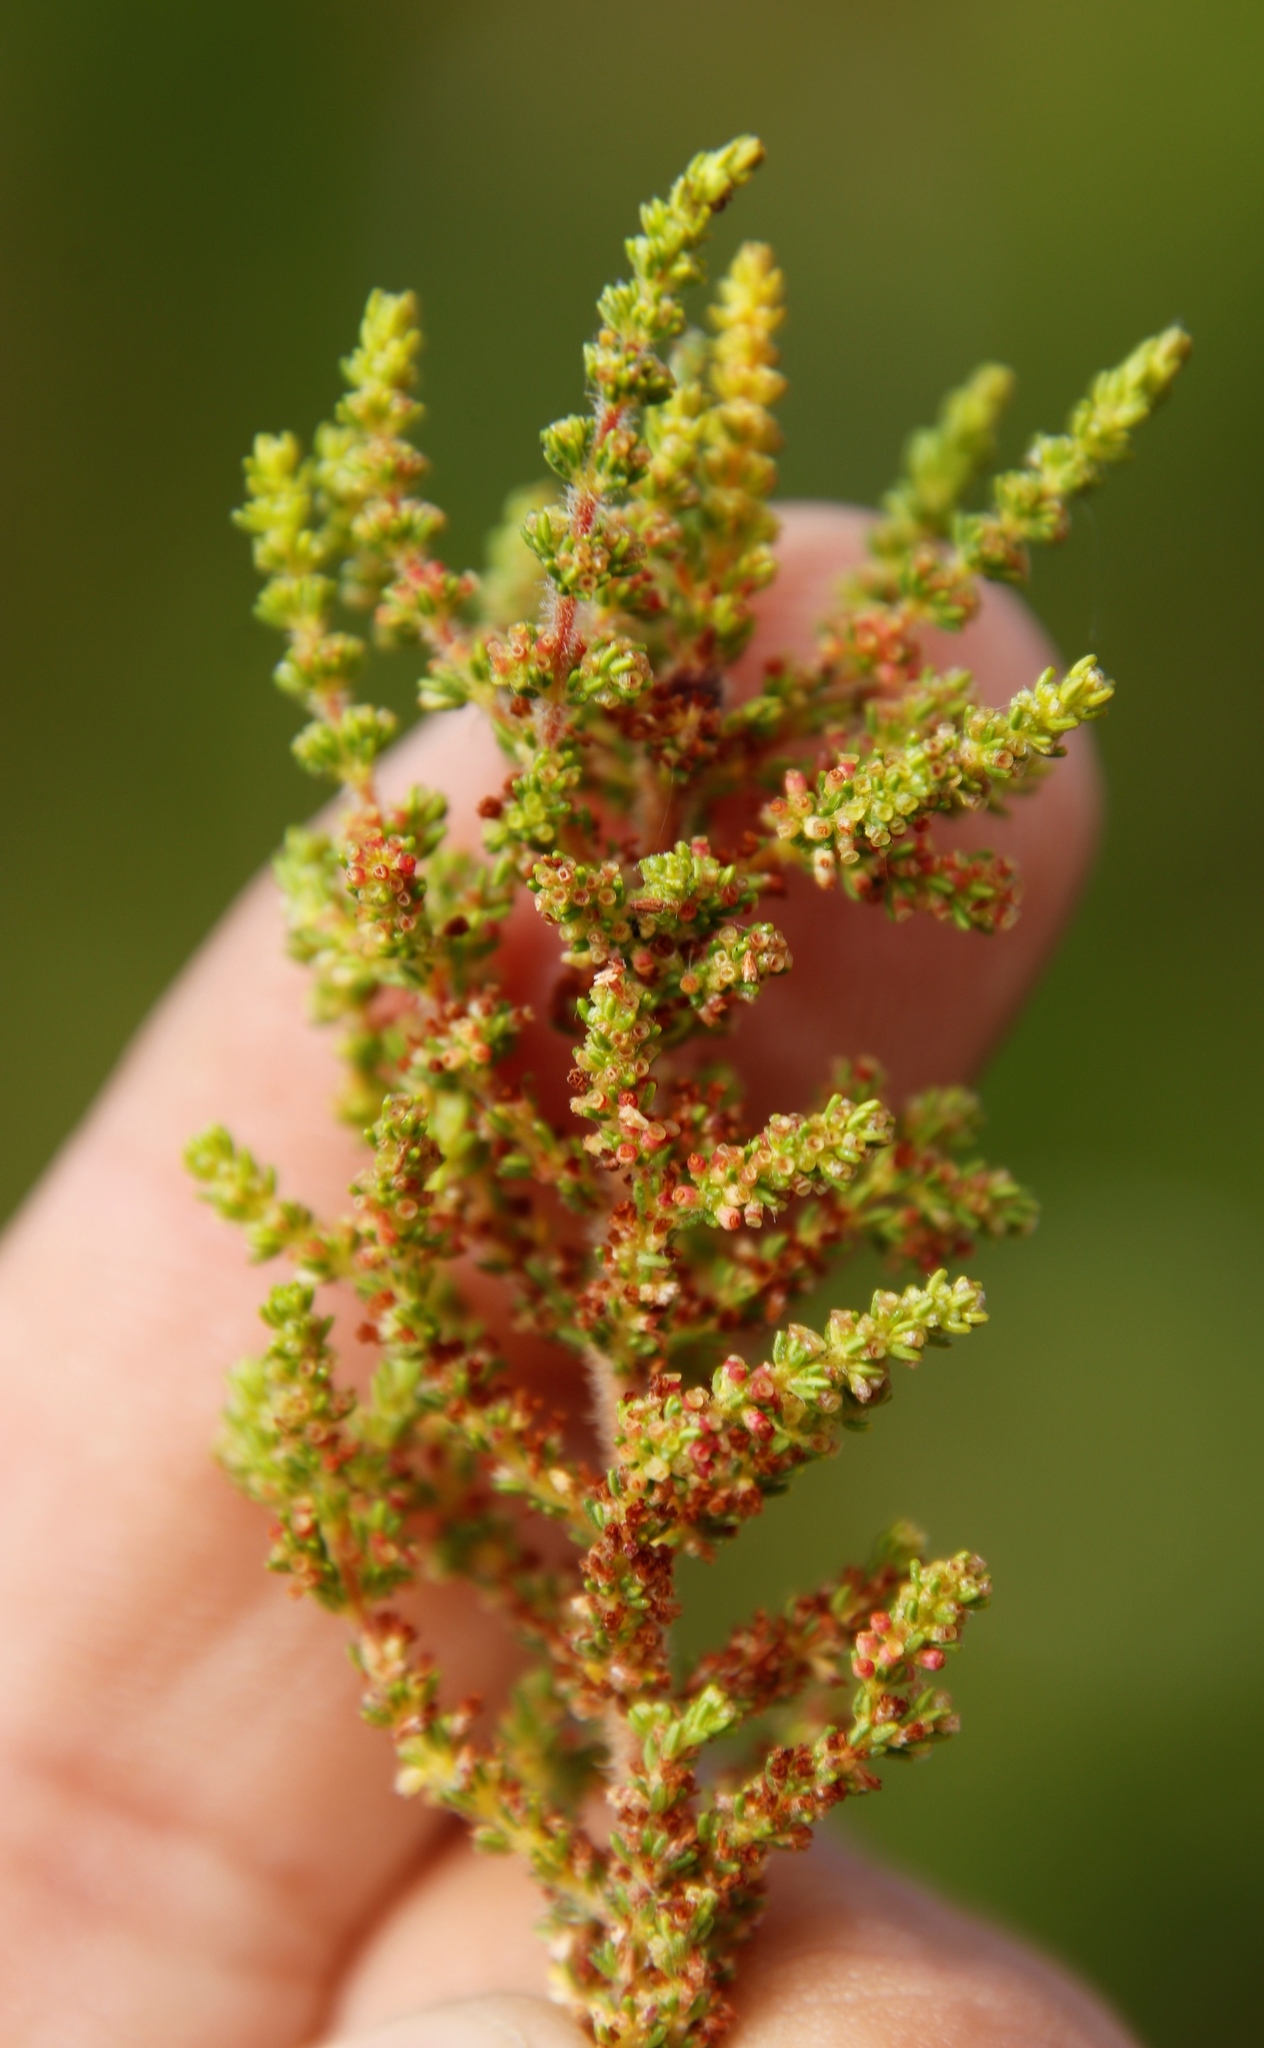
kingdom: Plantae
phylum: Tracheophyta
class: Magnoliopsida
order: Ericales
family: Ericaceae
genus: Erica
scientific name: Erica muscosa
